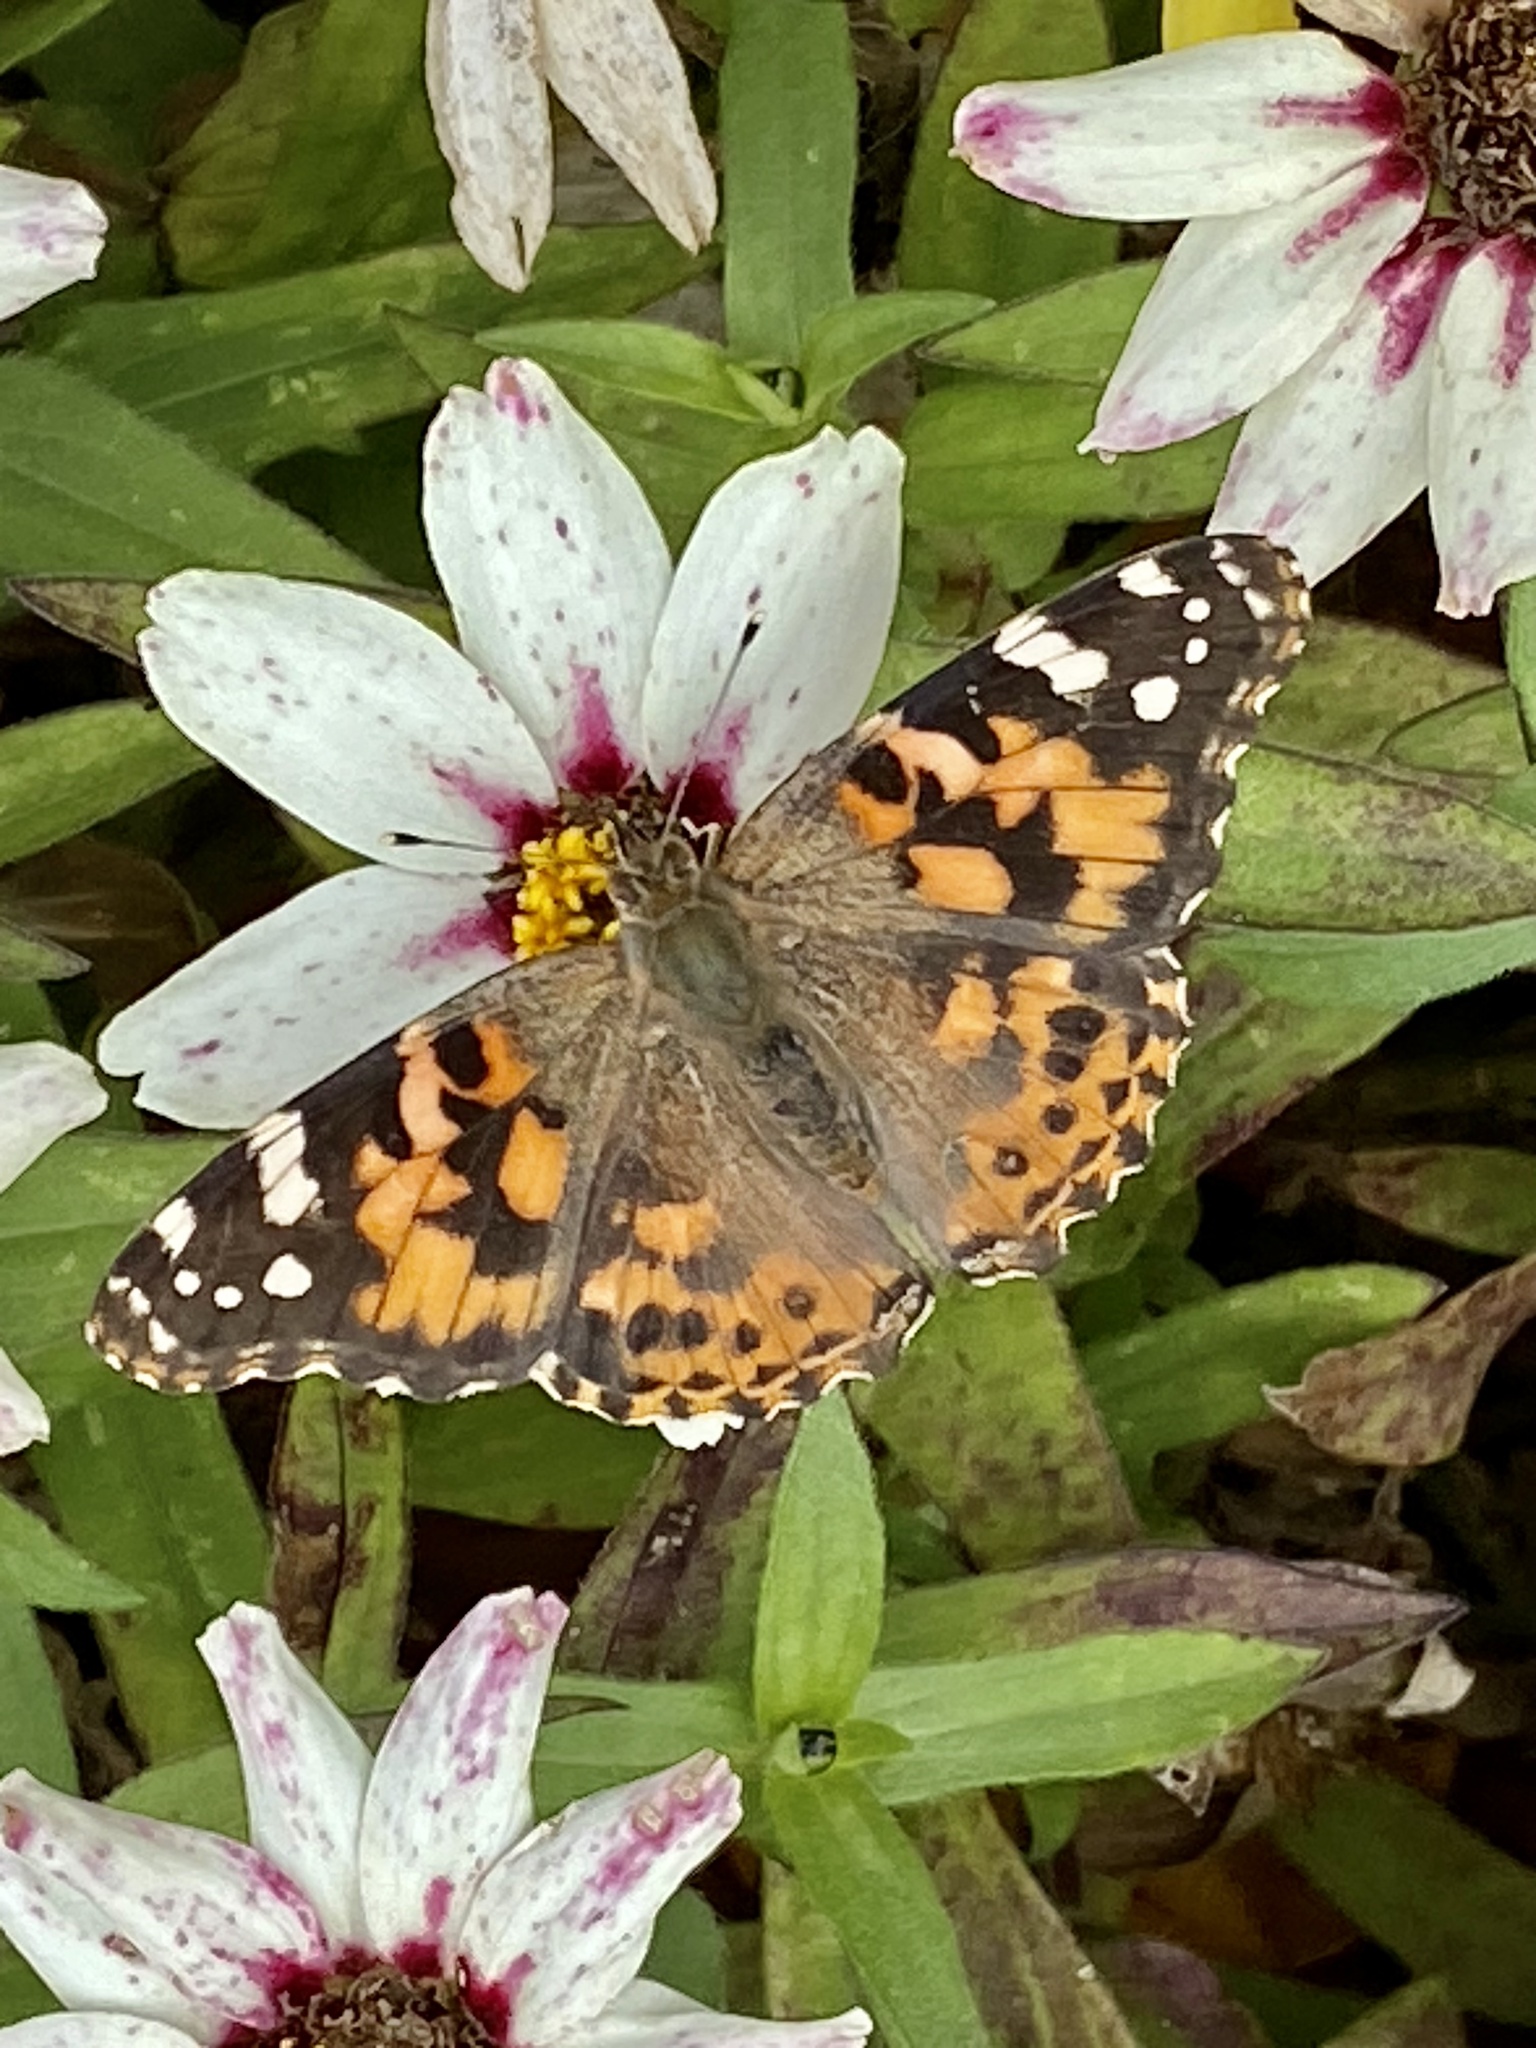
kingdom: Animalia
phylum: Arthropoda
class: Insecta
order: Lepidoptera
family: Nymphalidae
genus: Vanessa
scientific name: Vanessa cardui
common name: Painted lady
